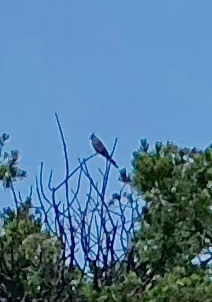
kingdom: Animalia
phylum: Chordata
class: Aves
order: Passeriformes
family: Ptilogonatidae
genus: Phainopepla
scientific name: Phainopepla nitens
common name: Phainopepla
